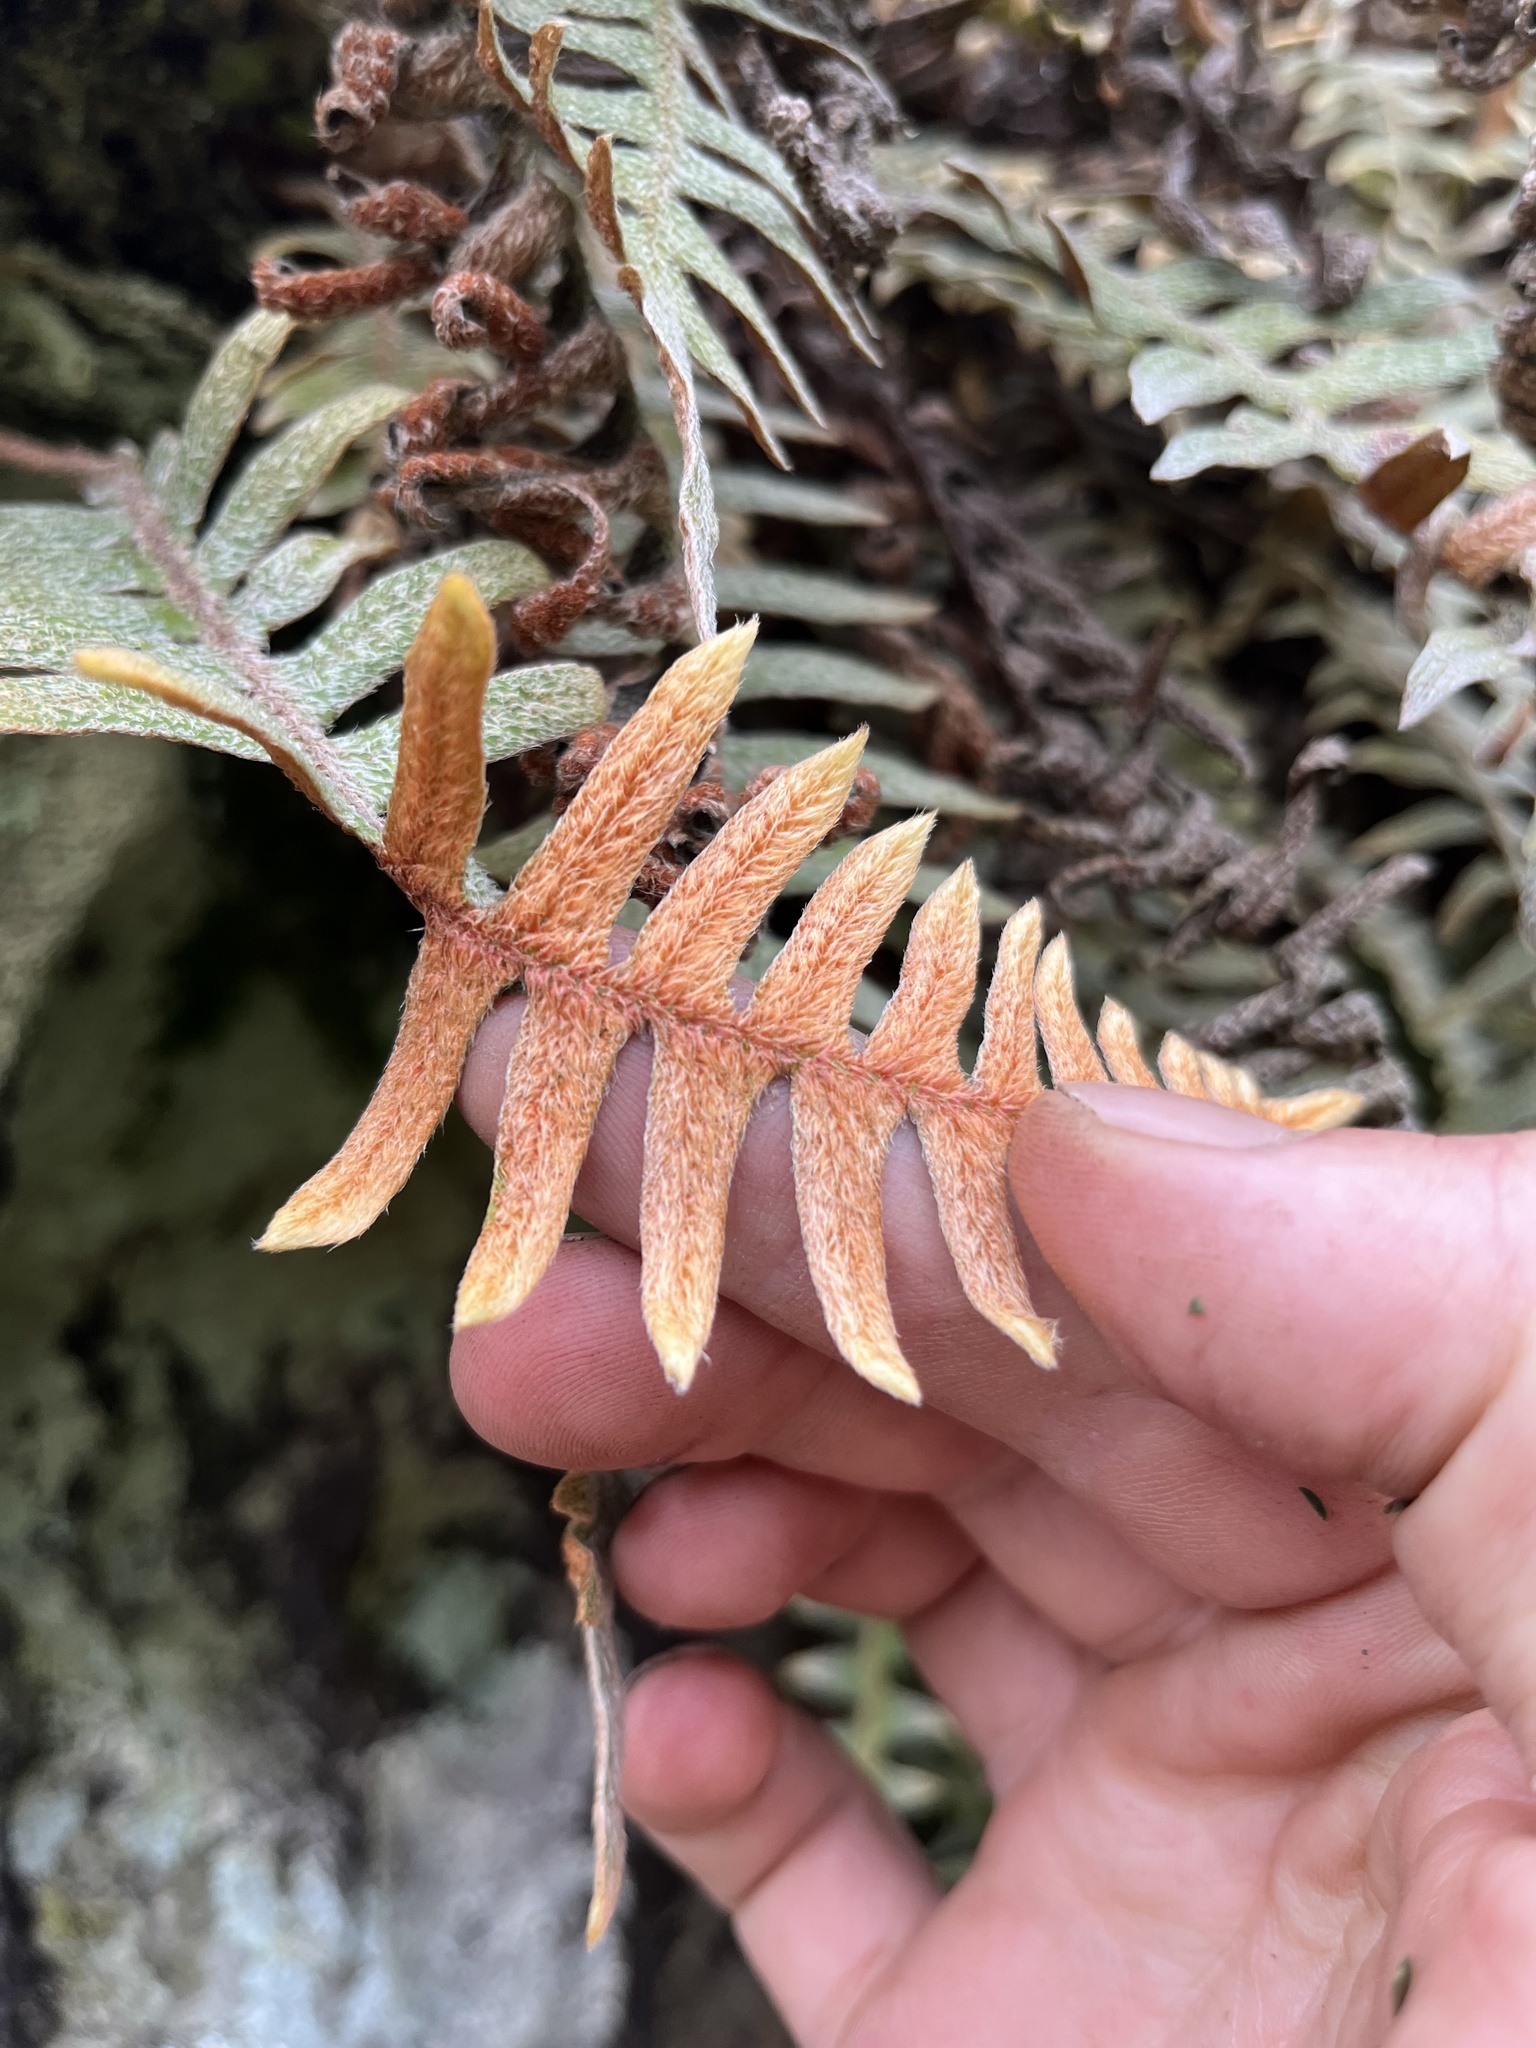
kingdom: Plantae
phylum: Tracheophyta
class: Polypodiopsida
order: Polypodiales
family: Polypodiaceae
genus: Pleopeltis
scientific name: Pleopeltis fimbriata
